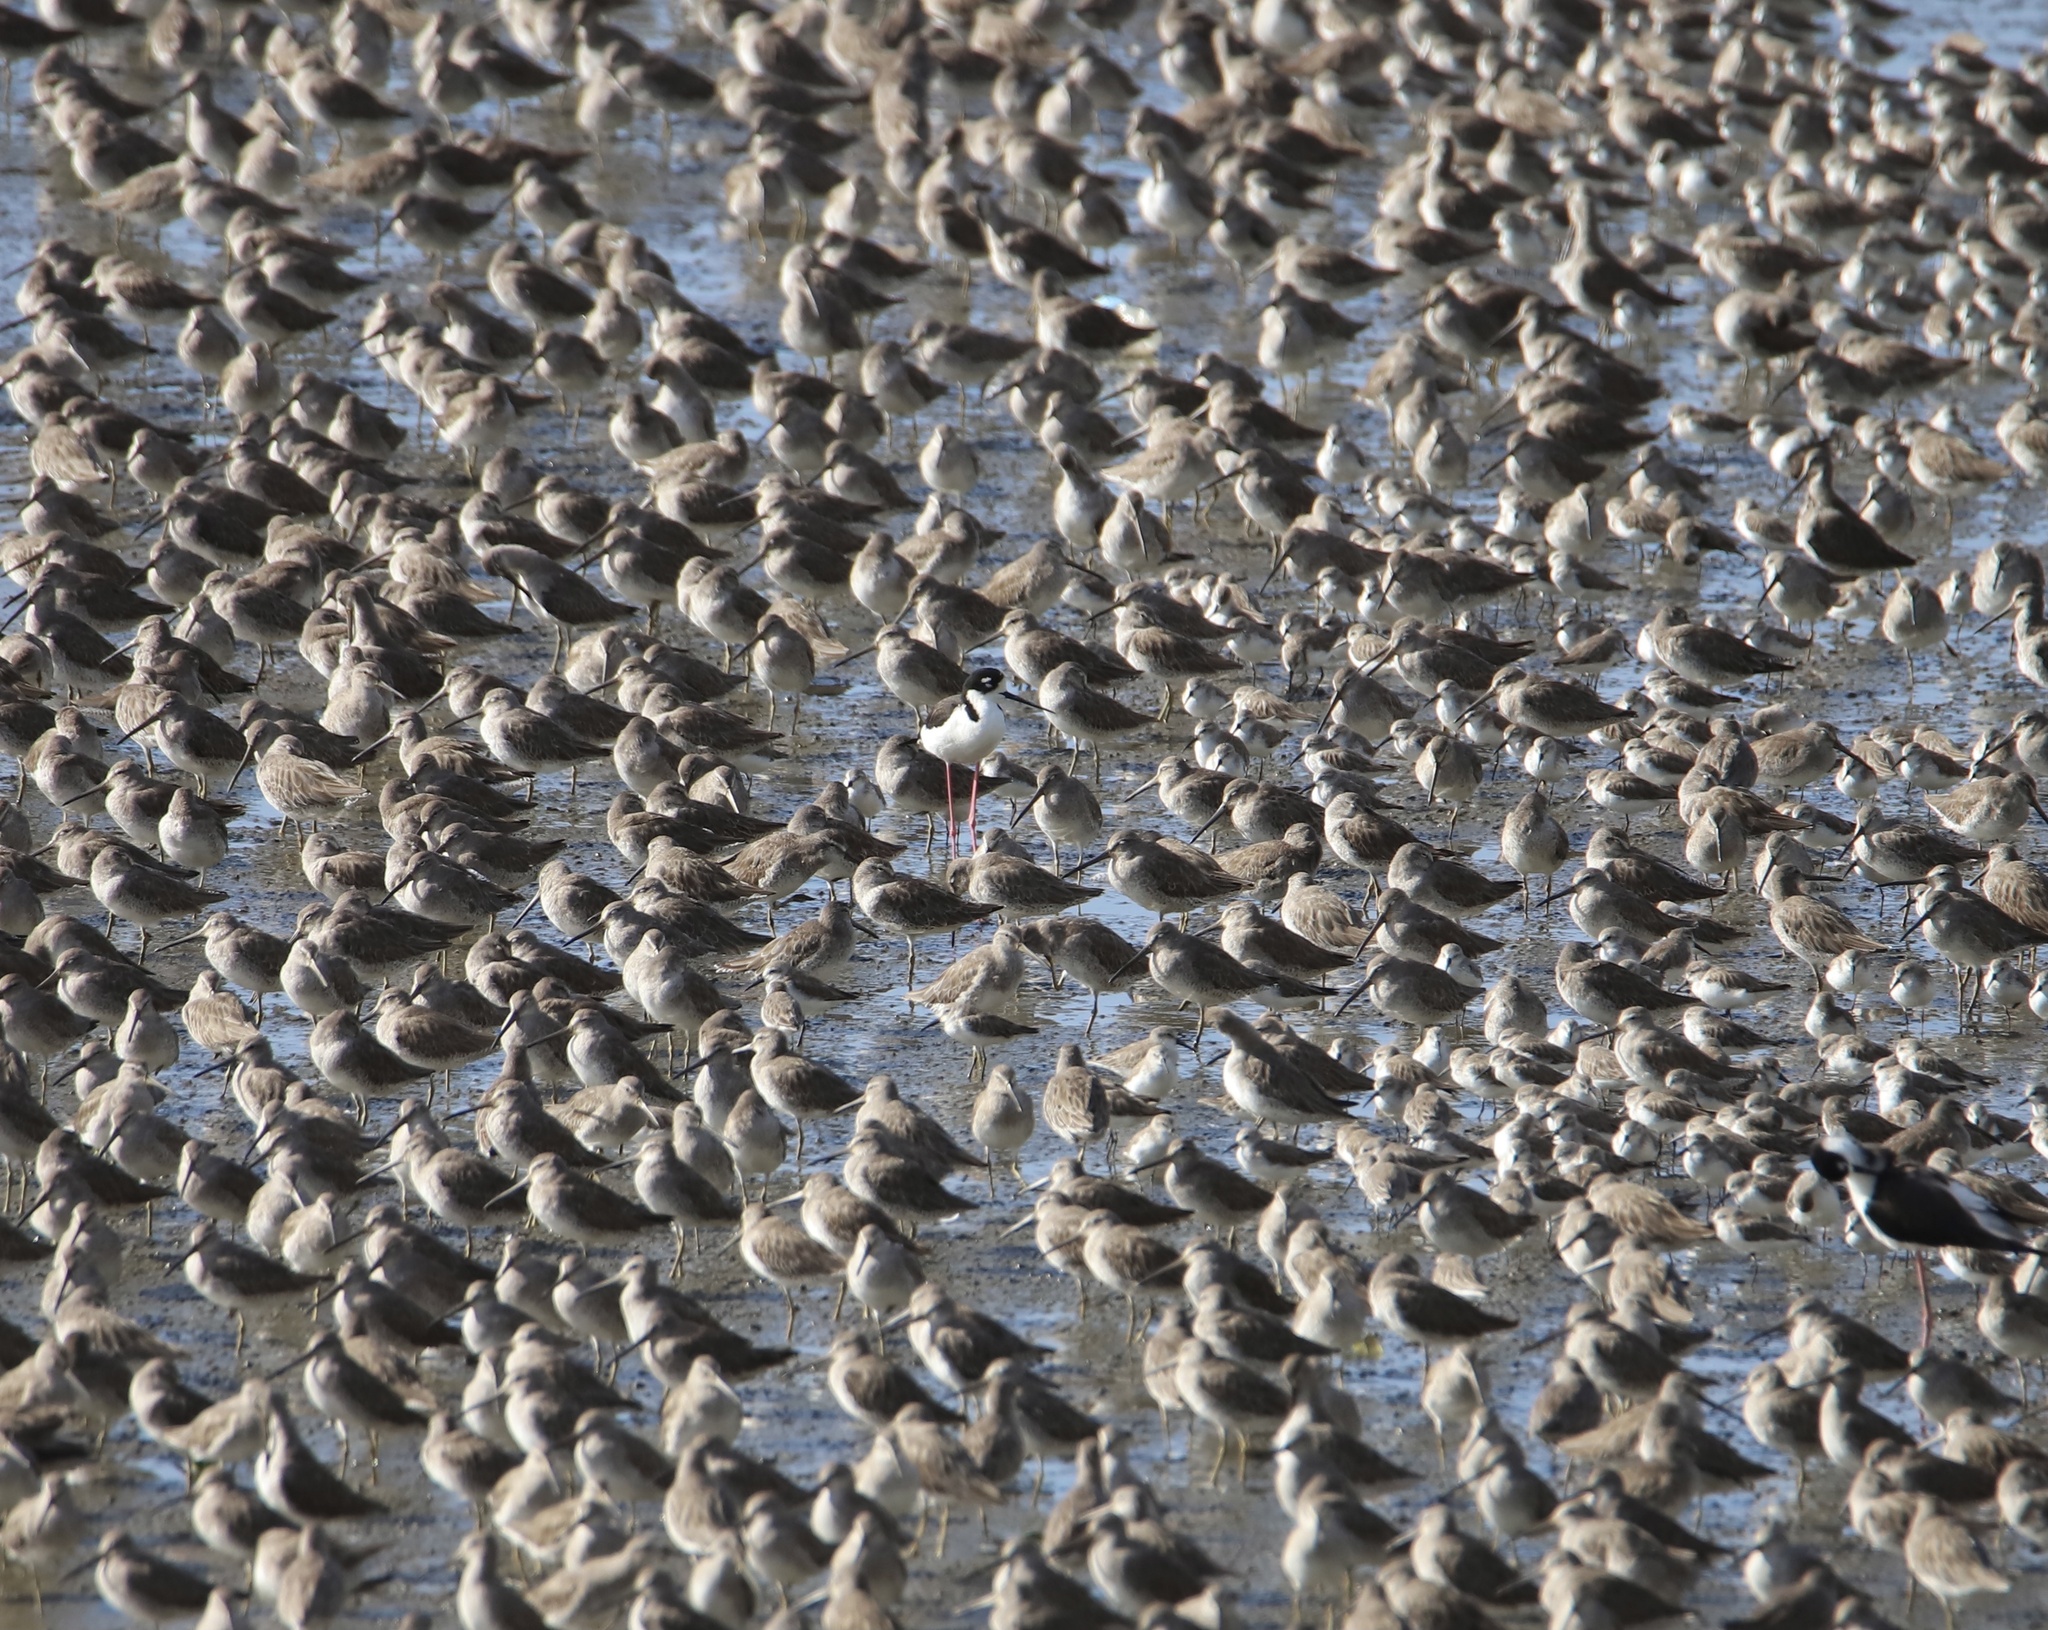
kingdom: Animalia
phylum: Chordata
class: Aves
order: Charadriiformes
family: Recurvirostridae
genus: Himantopus
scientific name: Himantopus mexicanus
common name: Black-necked stilt
